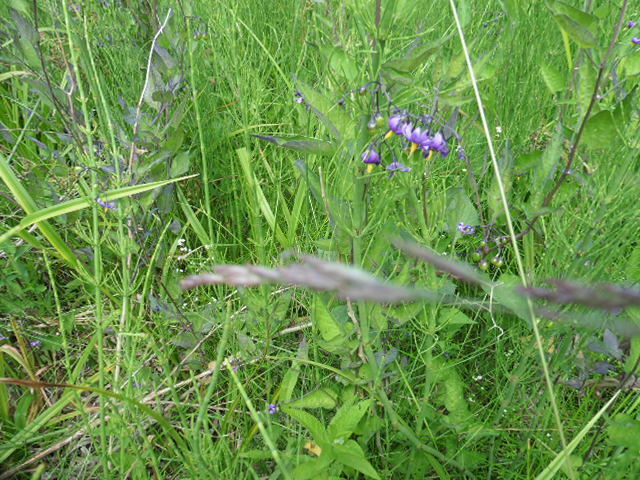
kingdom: Plantae
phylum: Tracheophyta
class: Magnoliopsida
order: Solanales
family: Solanaceae
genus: Solanum
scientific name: Solanum dulcamara
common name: Climbing nightshade
